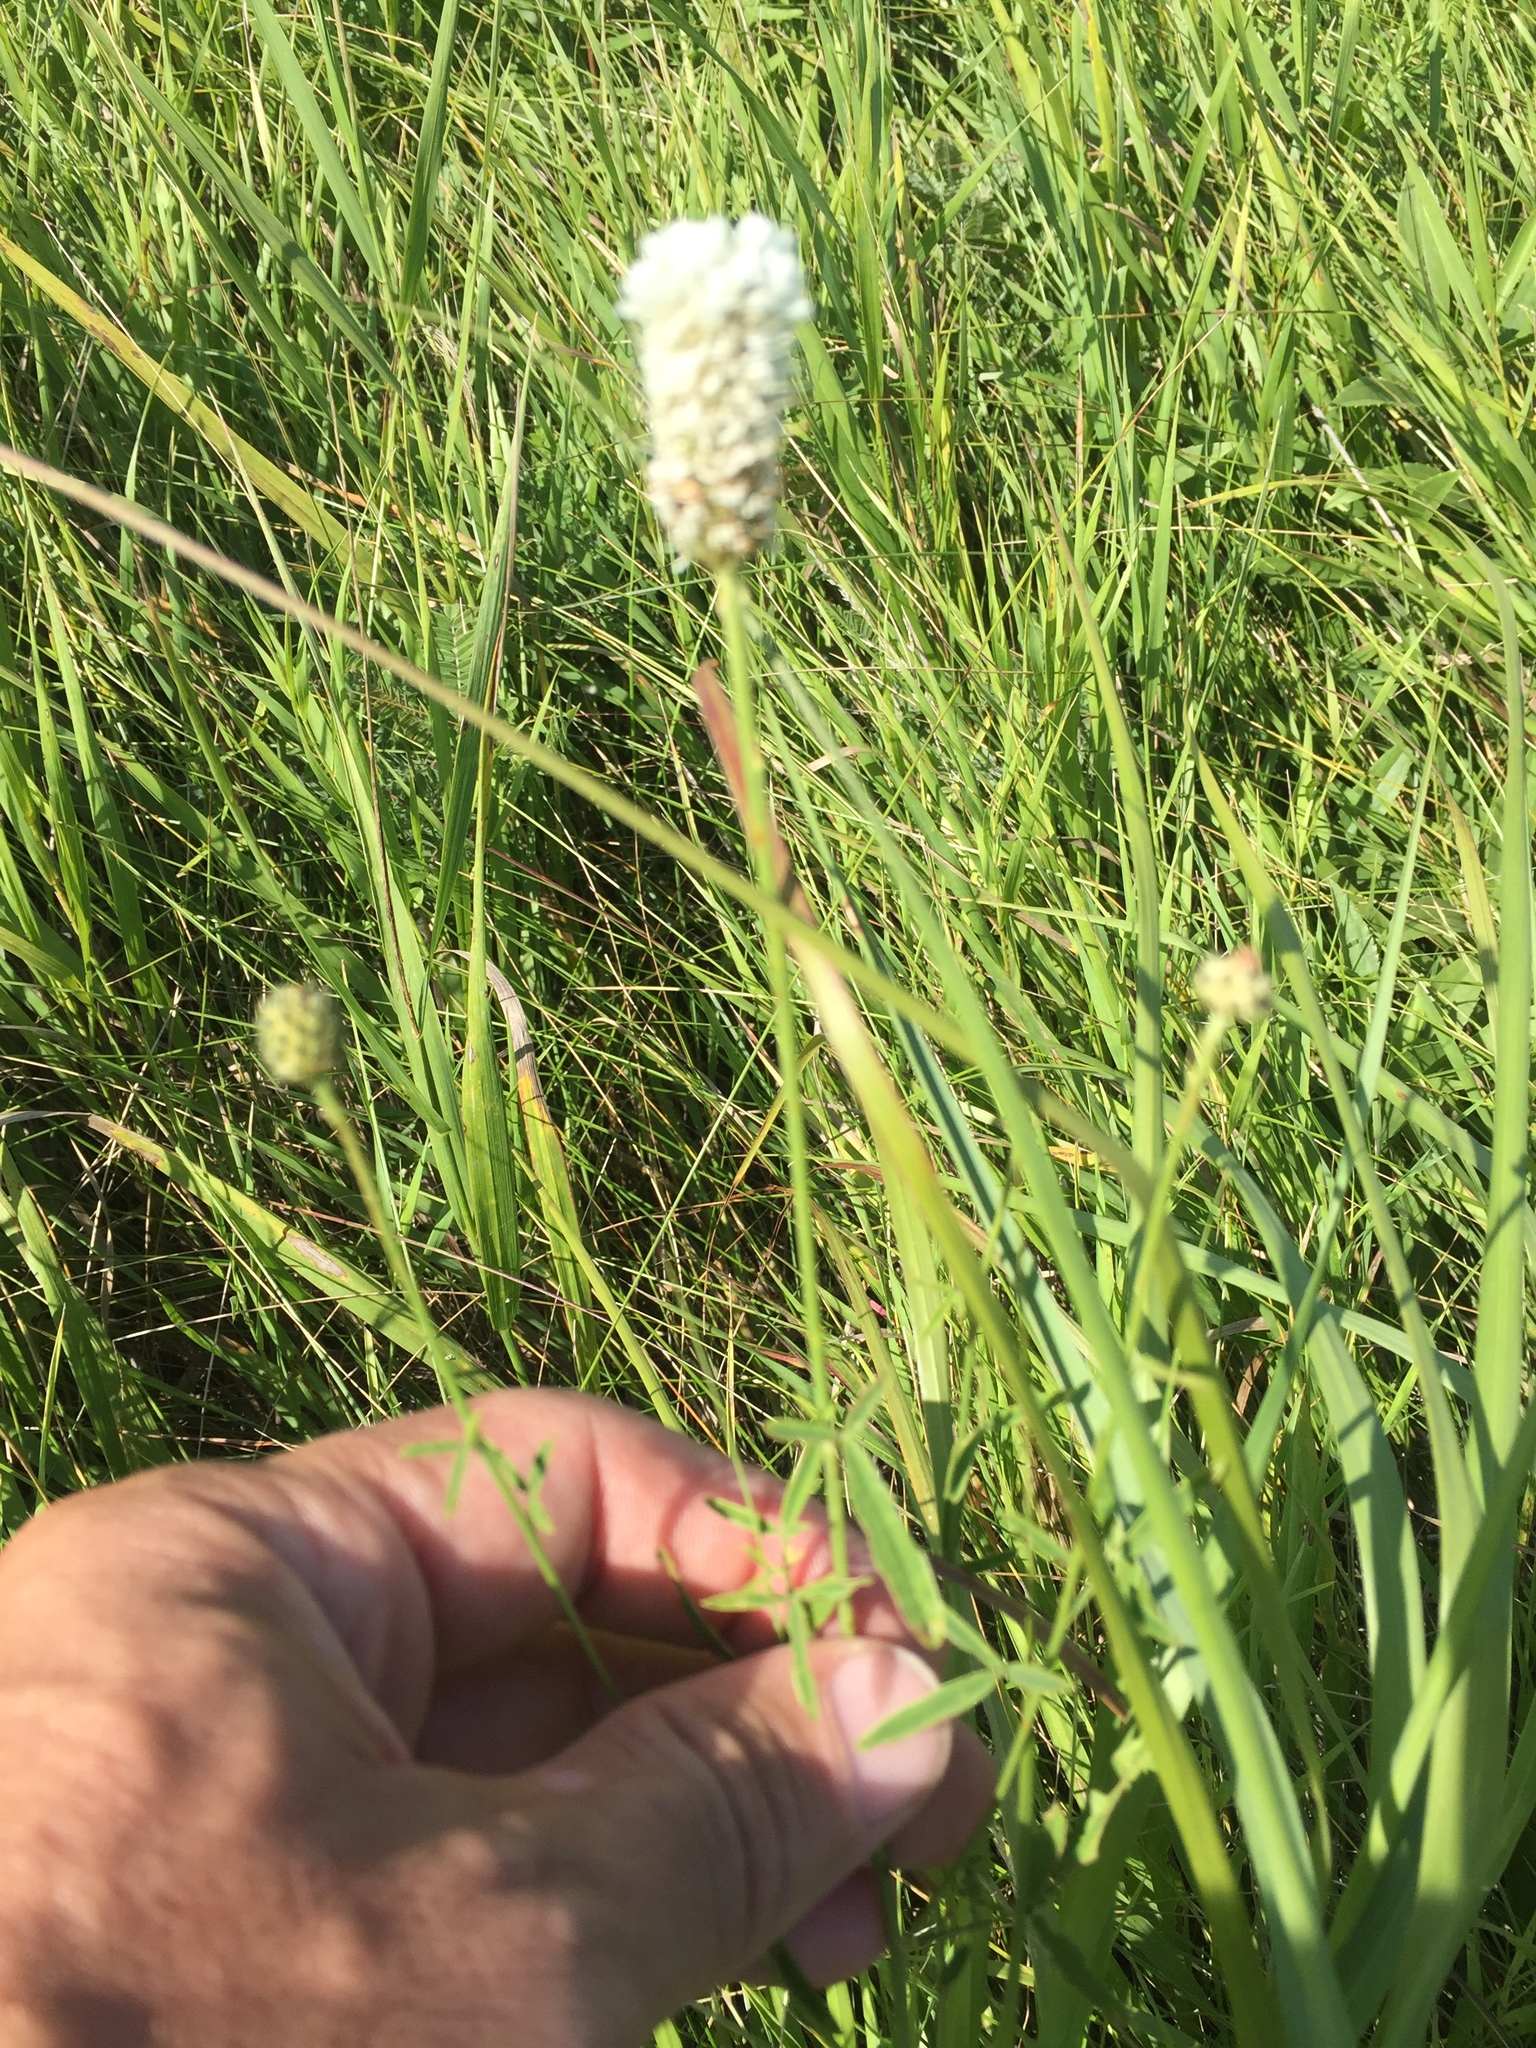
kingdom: Plantae
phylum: Tracheophyta
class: Magnoliopsida
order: Fabales
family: Fabaceae
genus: Dalea
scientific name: Dalea candida
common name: White prairie-clover
